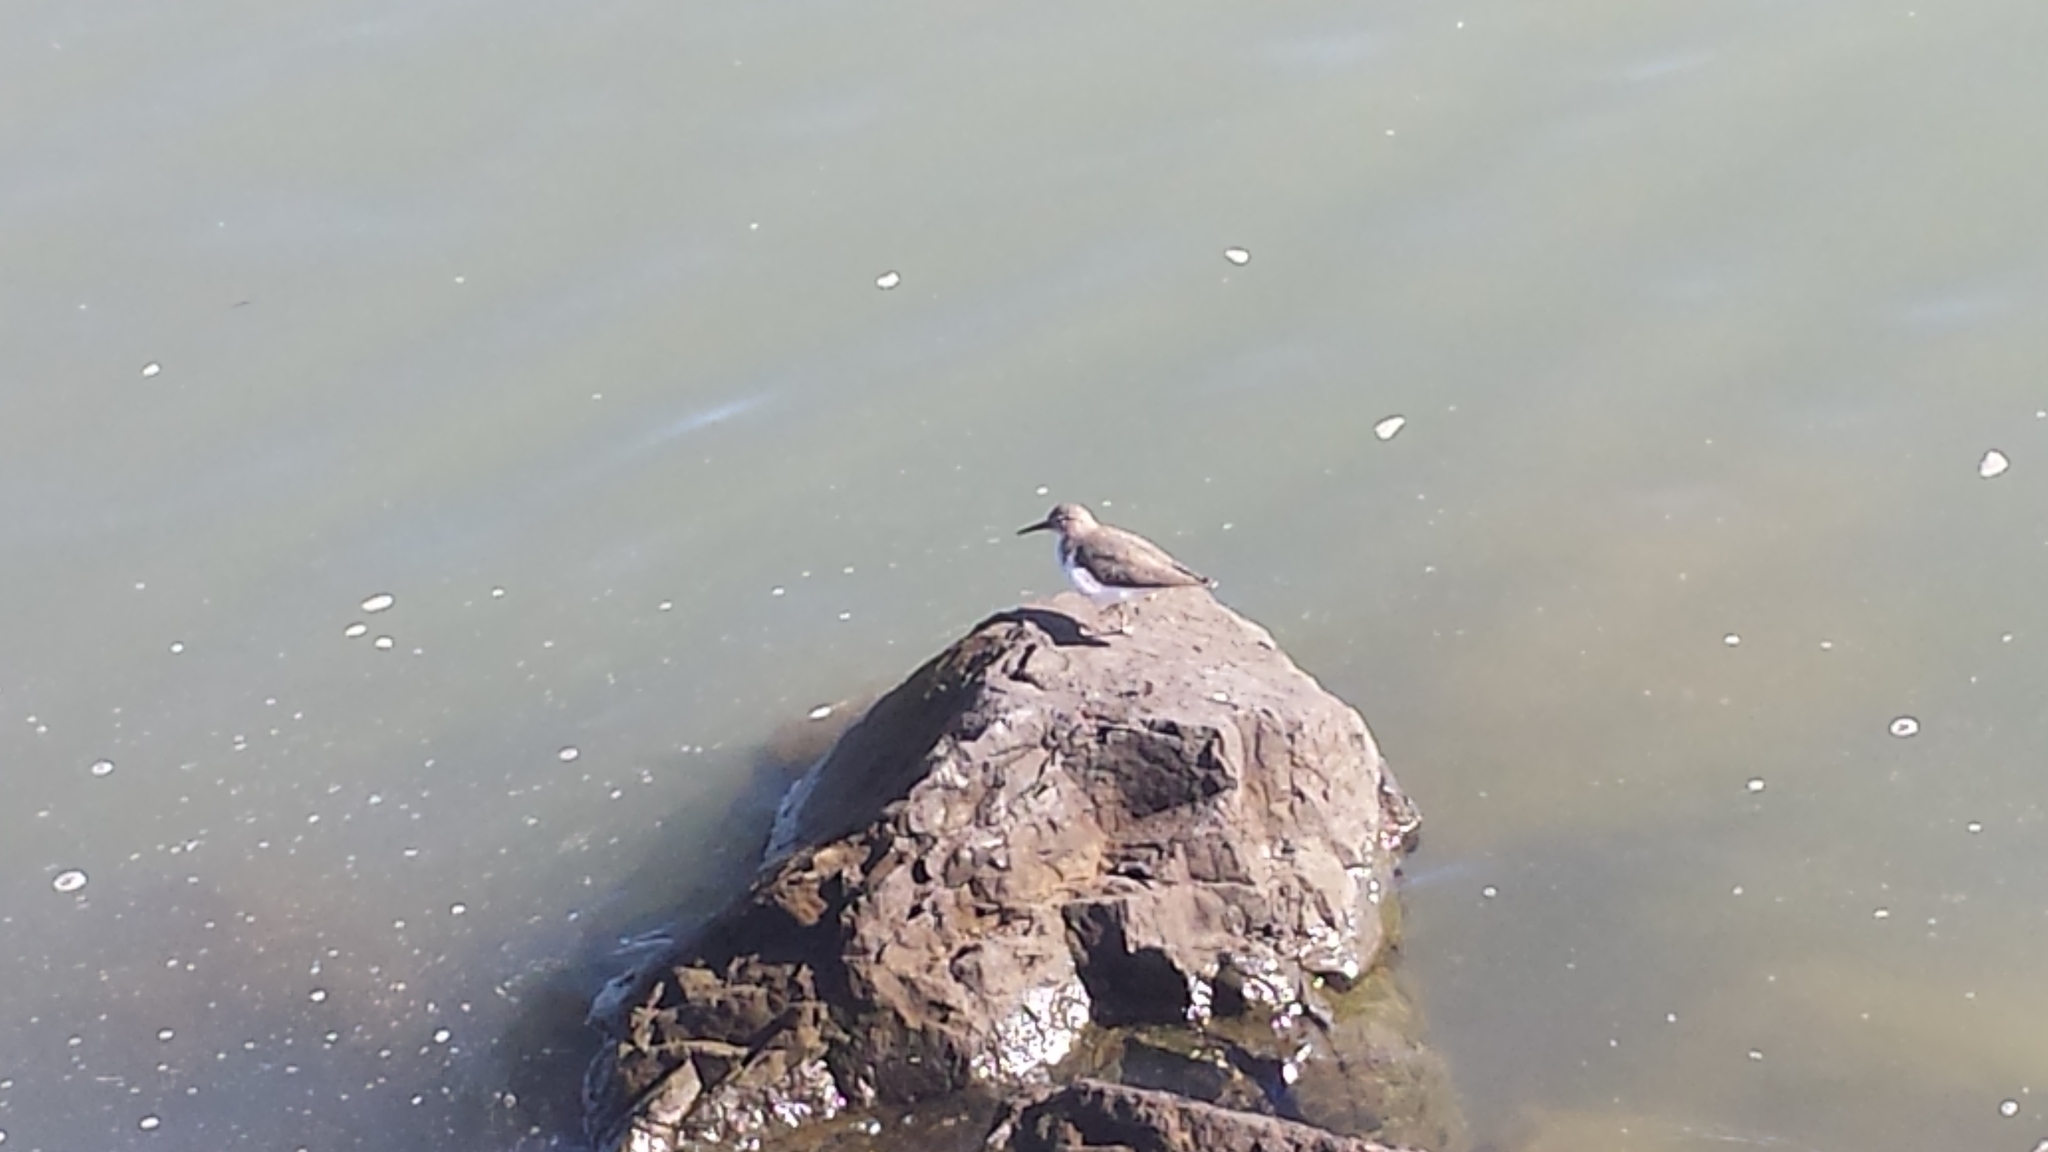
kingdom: Animalia
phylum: Chordata
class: Aves
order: Charadriiformes
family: Scolopacidae
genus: Actitis
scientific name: Actitis macularius
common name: Spotted sandpiper
